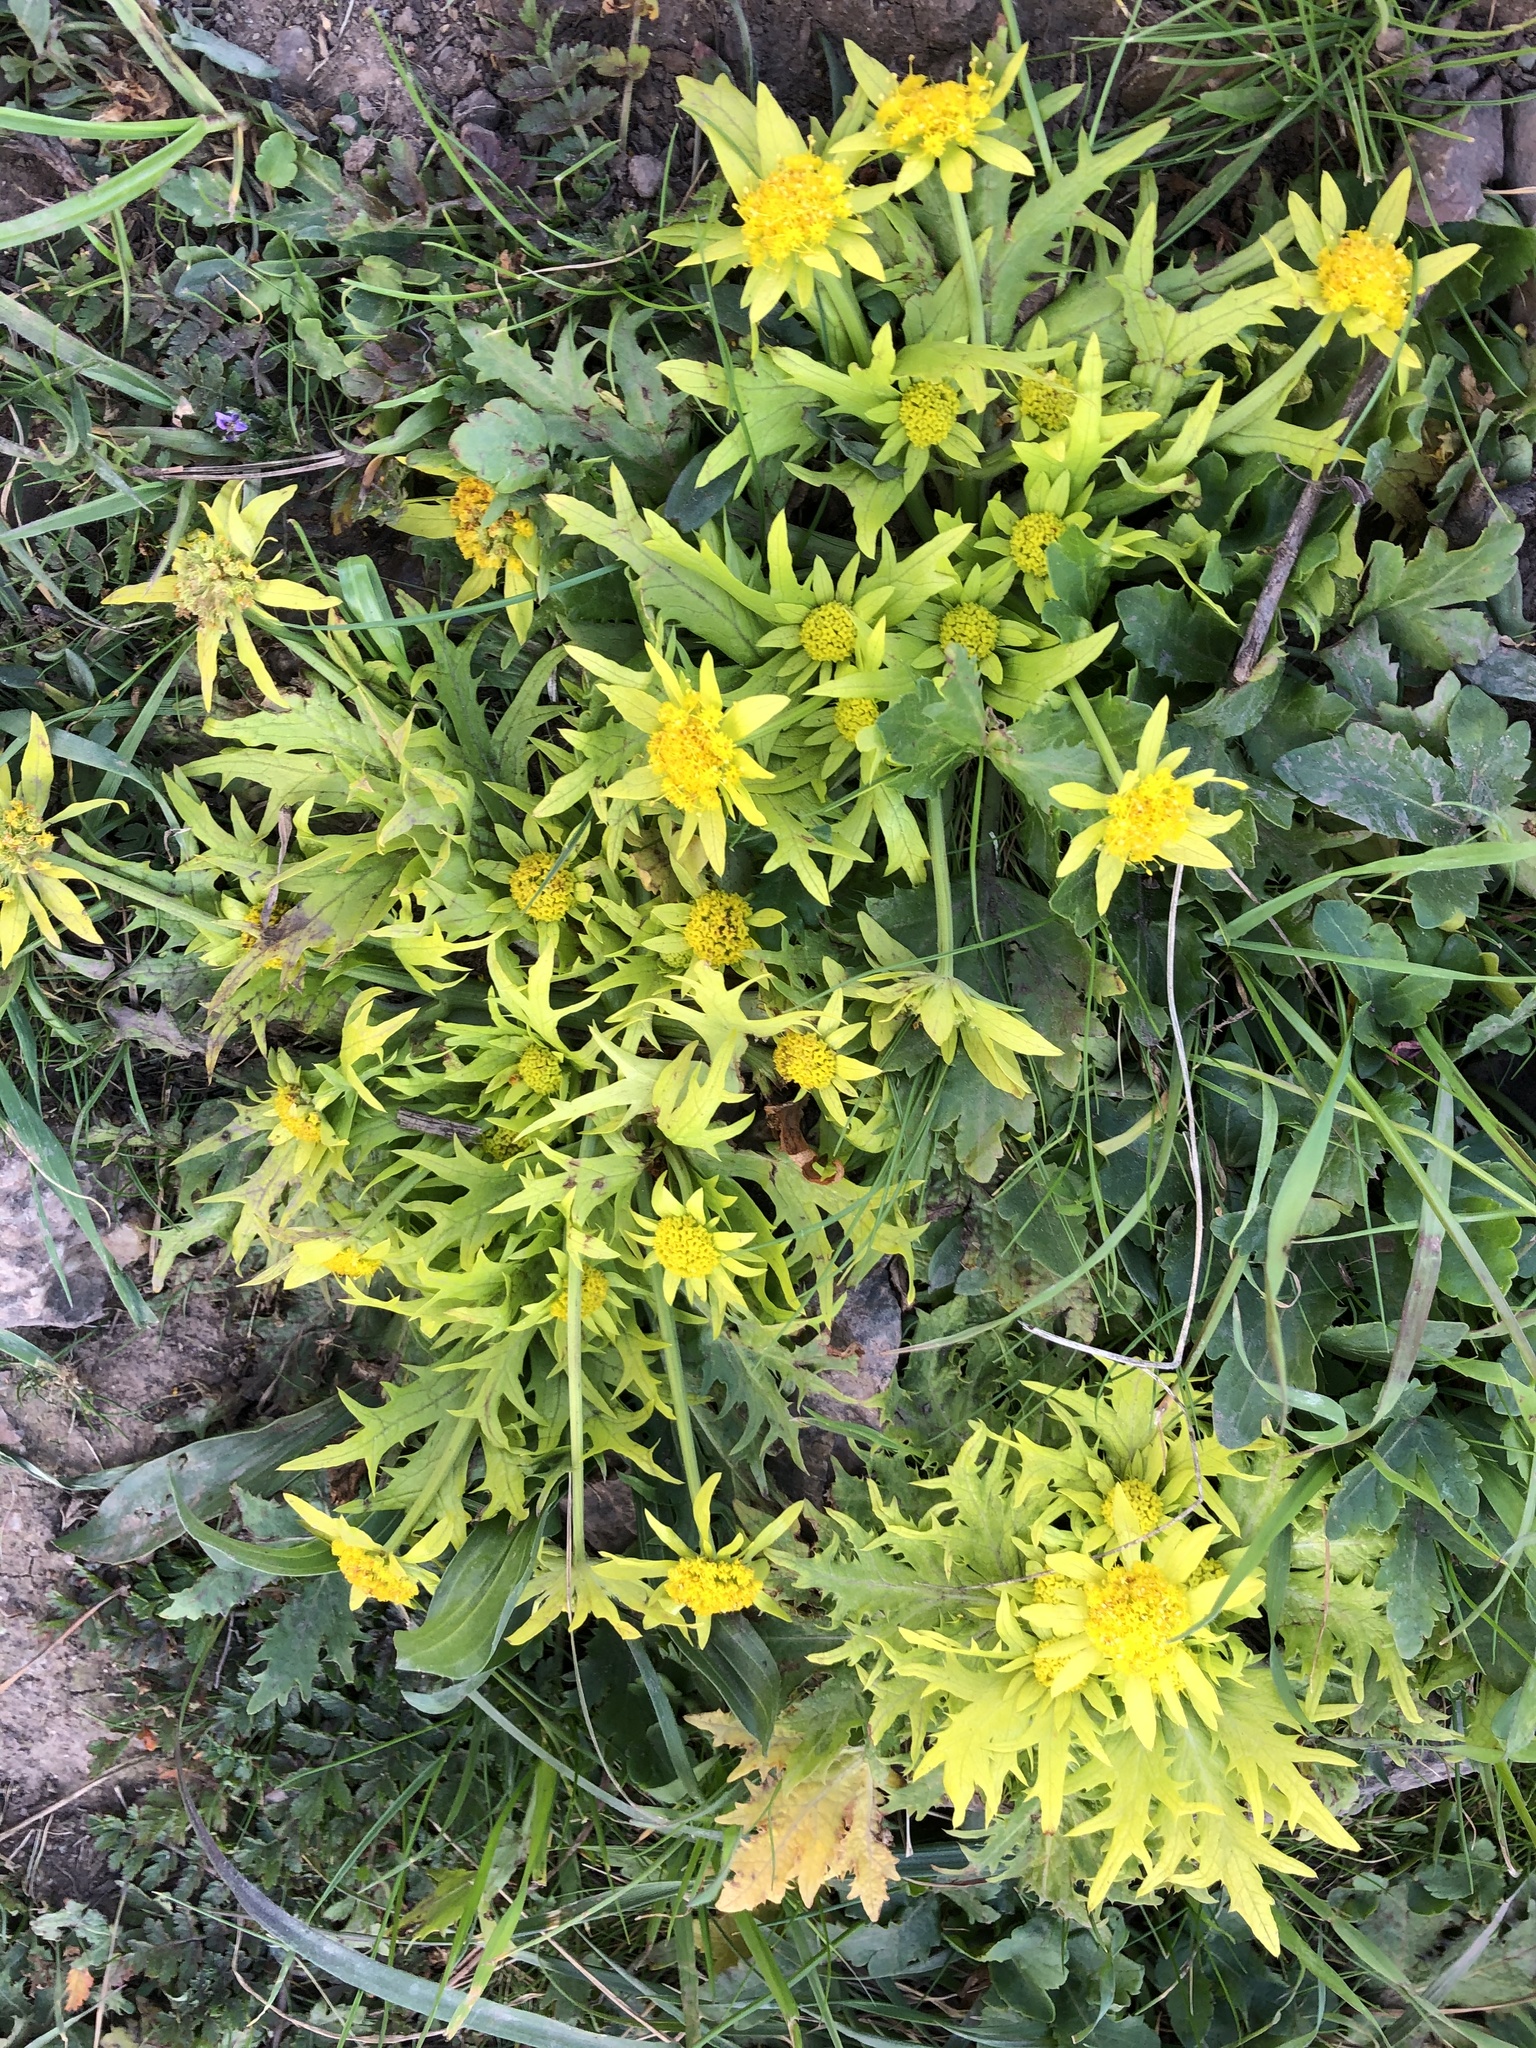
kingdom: Plantae
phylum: Tracheophyta
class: Magnoliopsida
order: Apiales
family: Apiaceae
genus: Sanicula
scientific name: Sanicula arctopoides
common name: Footsteps-of-spring
